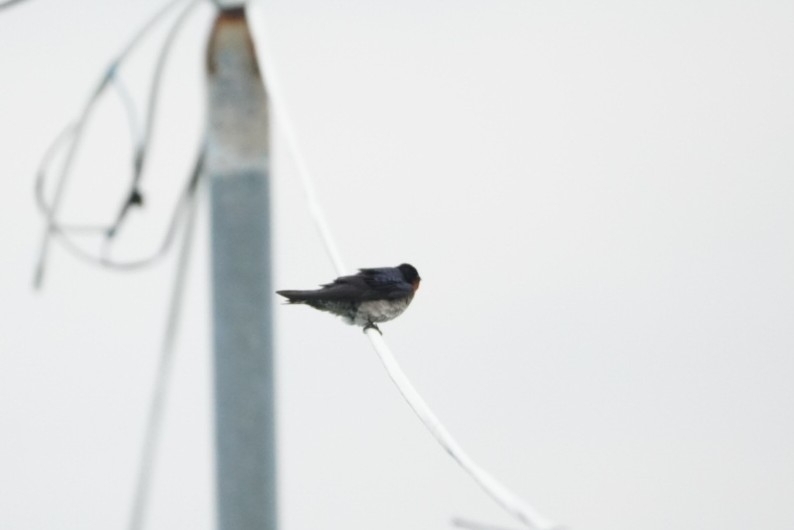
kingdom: Animalia
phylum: Chordata
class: Aves
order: Passeriformes
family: Hirundinidae
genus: Hirundo
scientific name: Hirundo tahitica
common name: Pacific swallow
